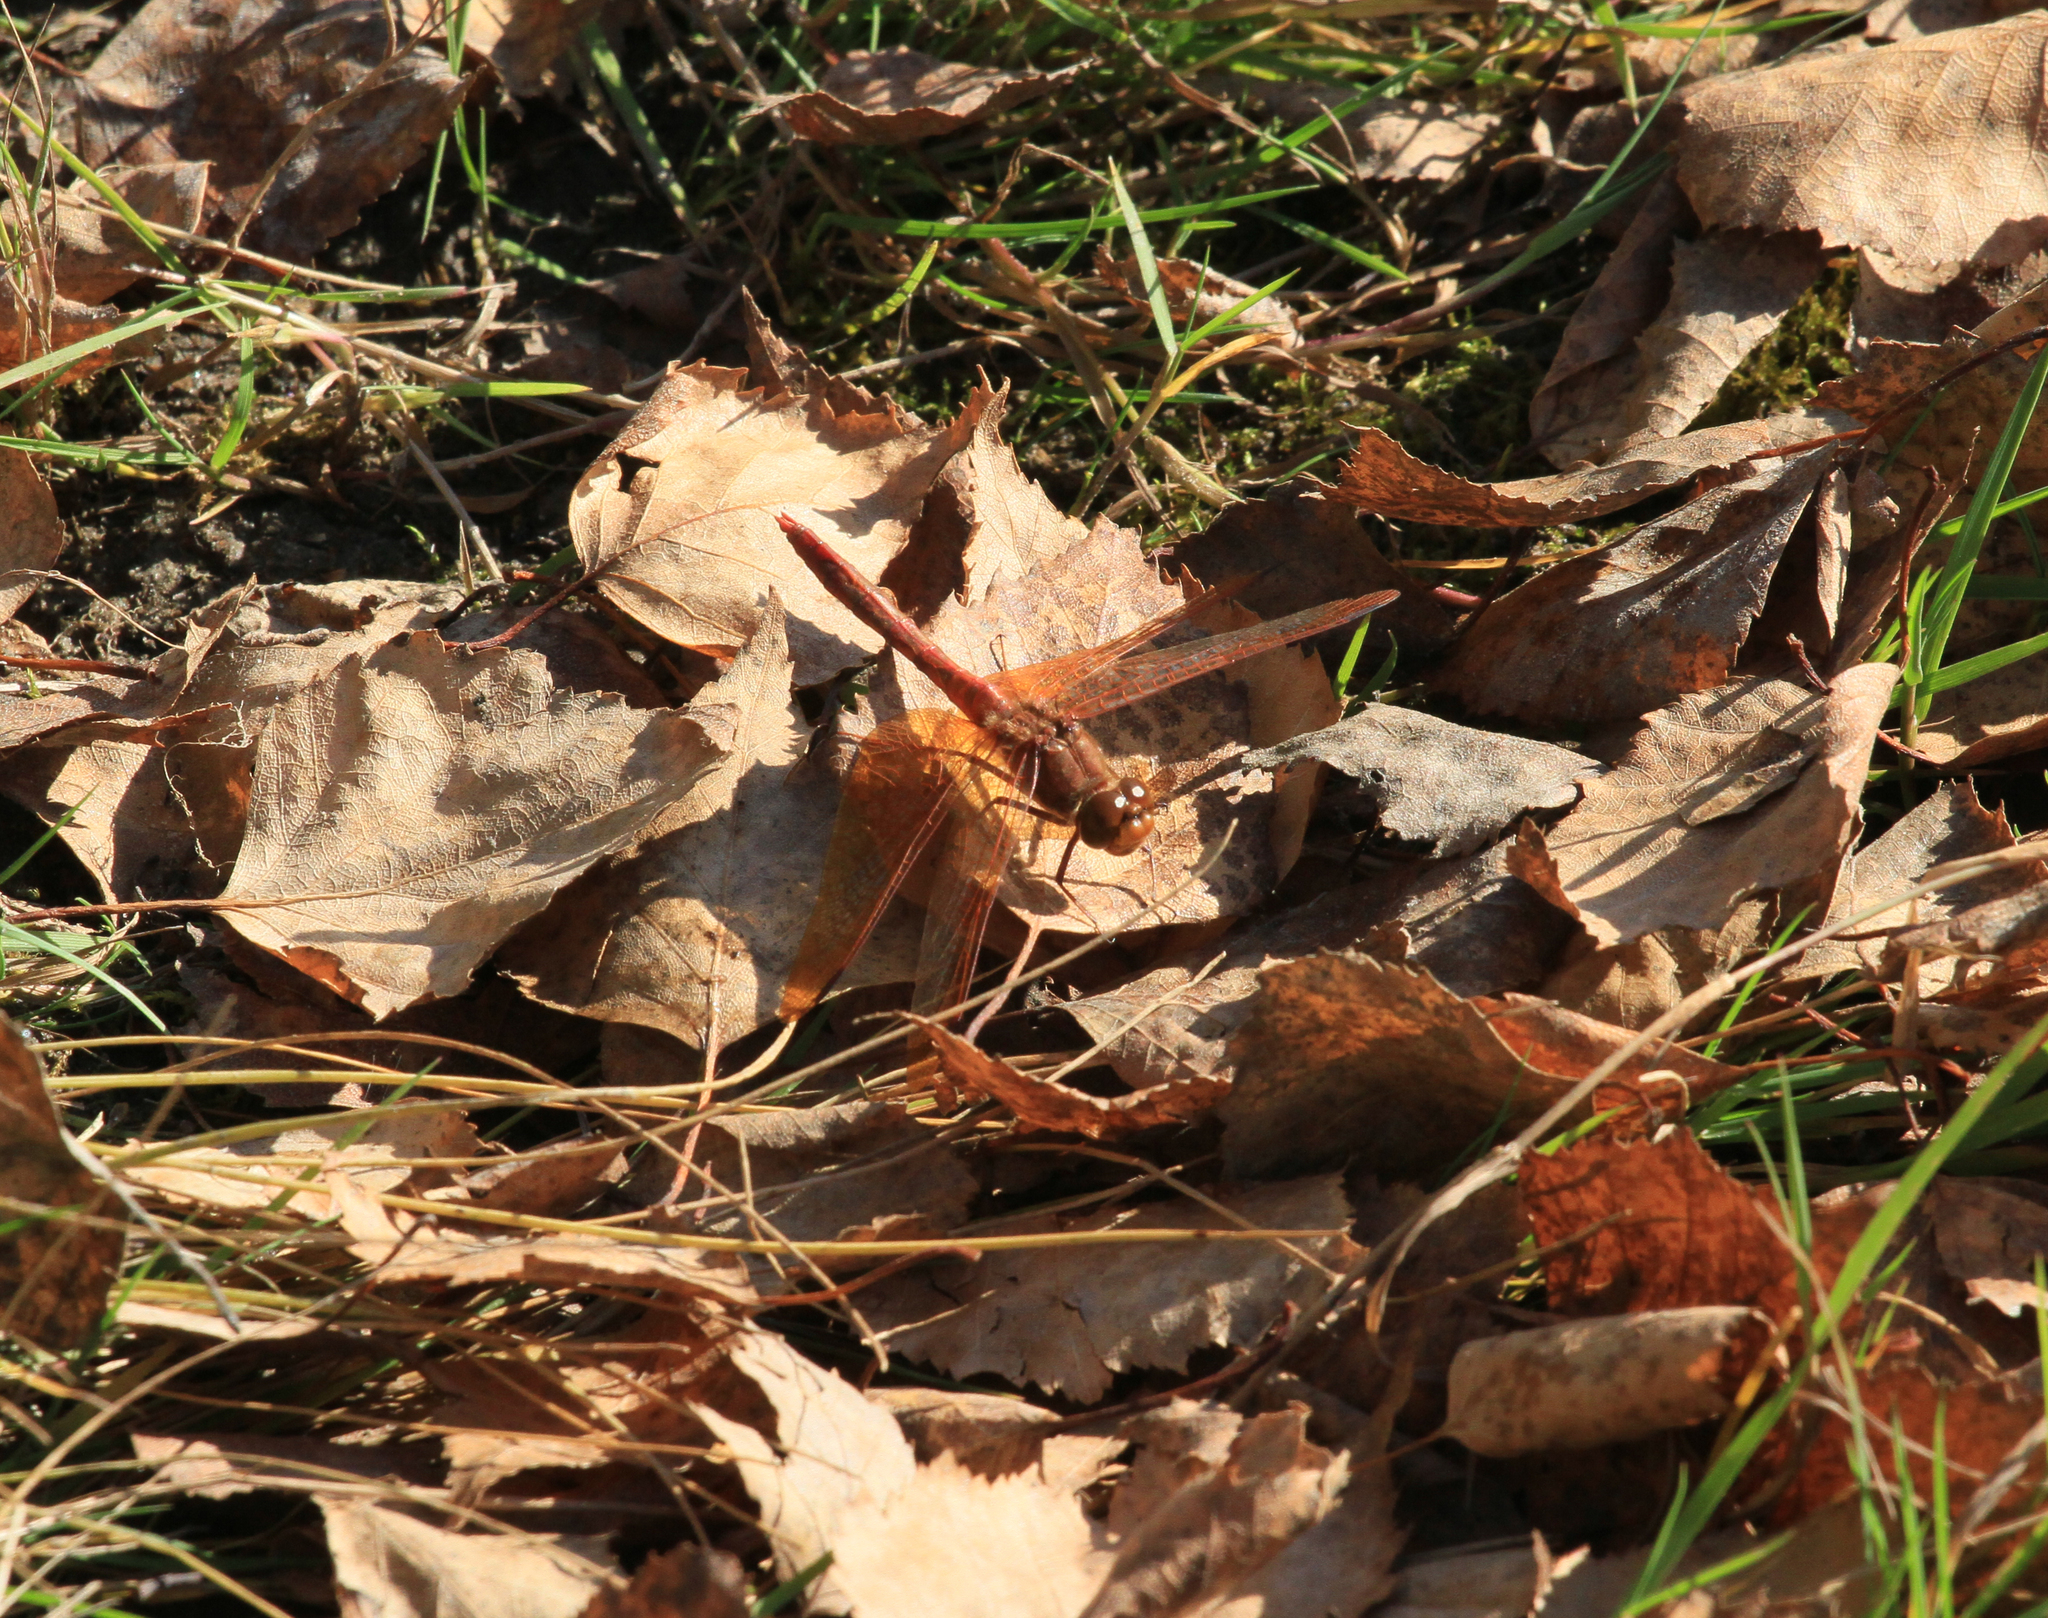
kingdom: Animalia
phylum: Arthropoda
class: Insecta
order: Odonata
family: Libellulidae
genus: Sympetrum
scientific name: Sympetrum croceolum
